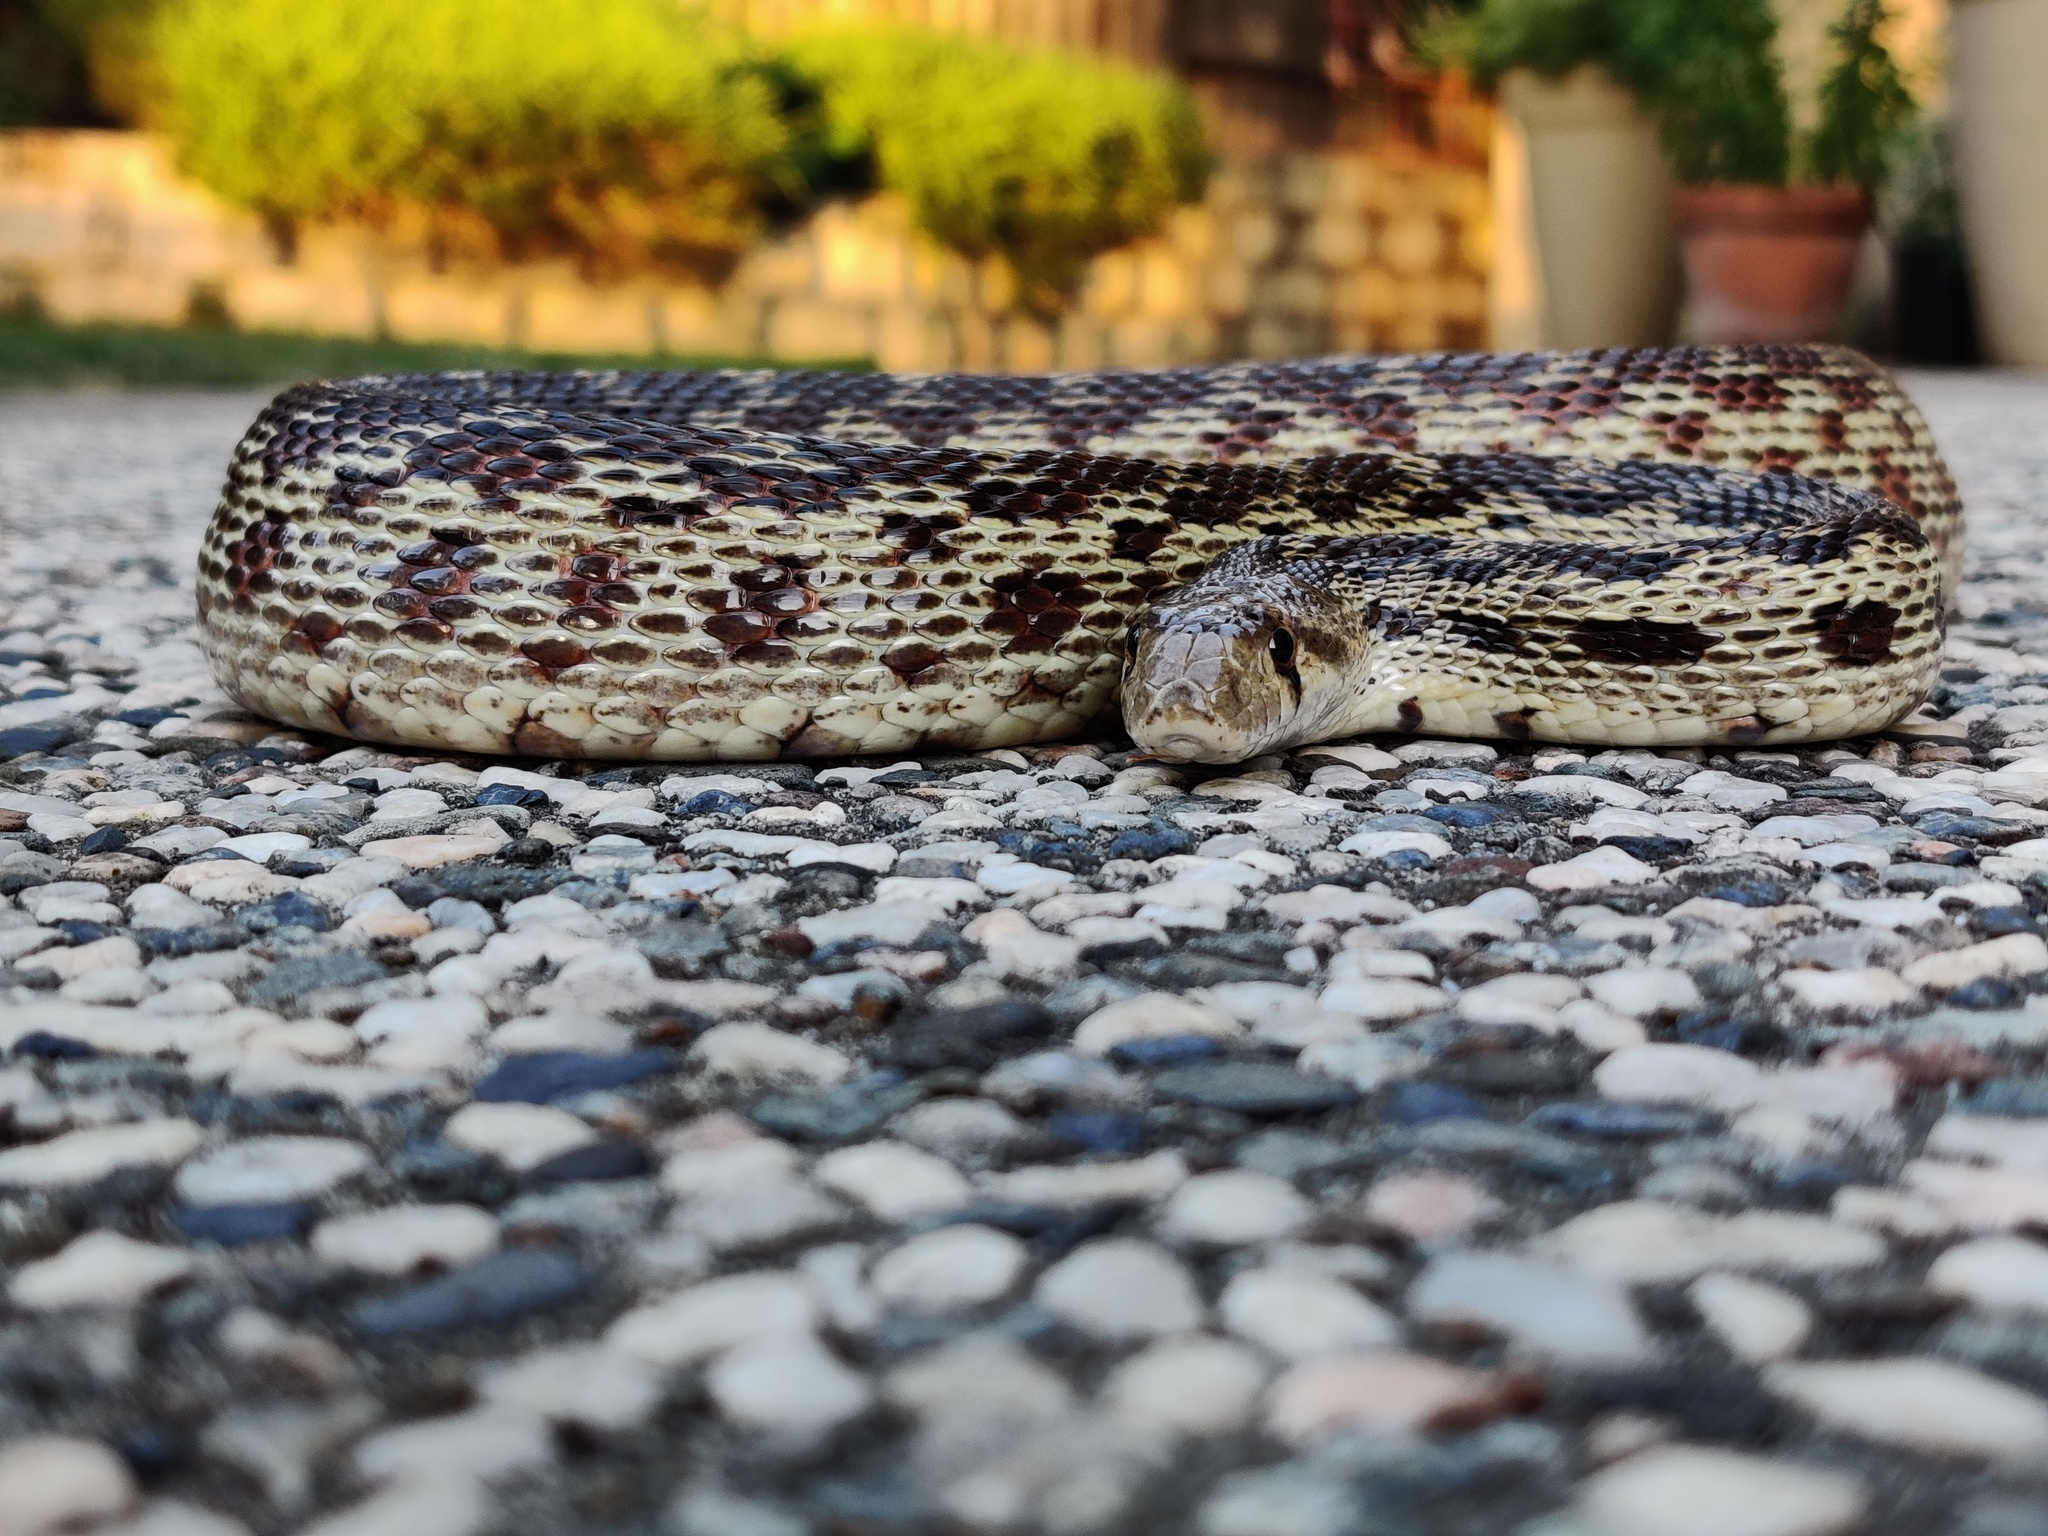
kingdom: Animalia
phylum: Chordata
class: Squamata
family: Colubridae
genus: Pituophis
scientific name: Pituophis catenifer
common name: Gopher snake
